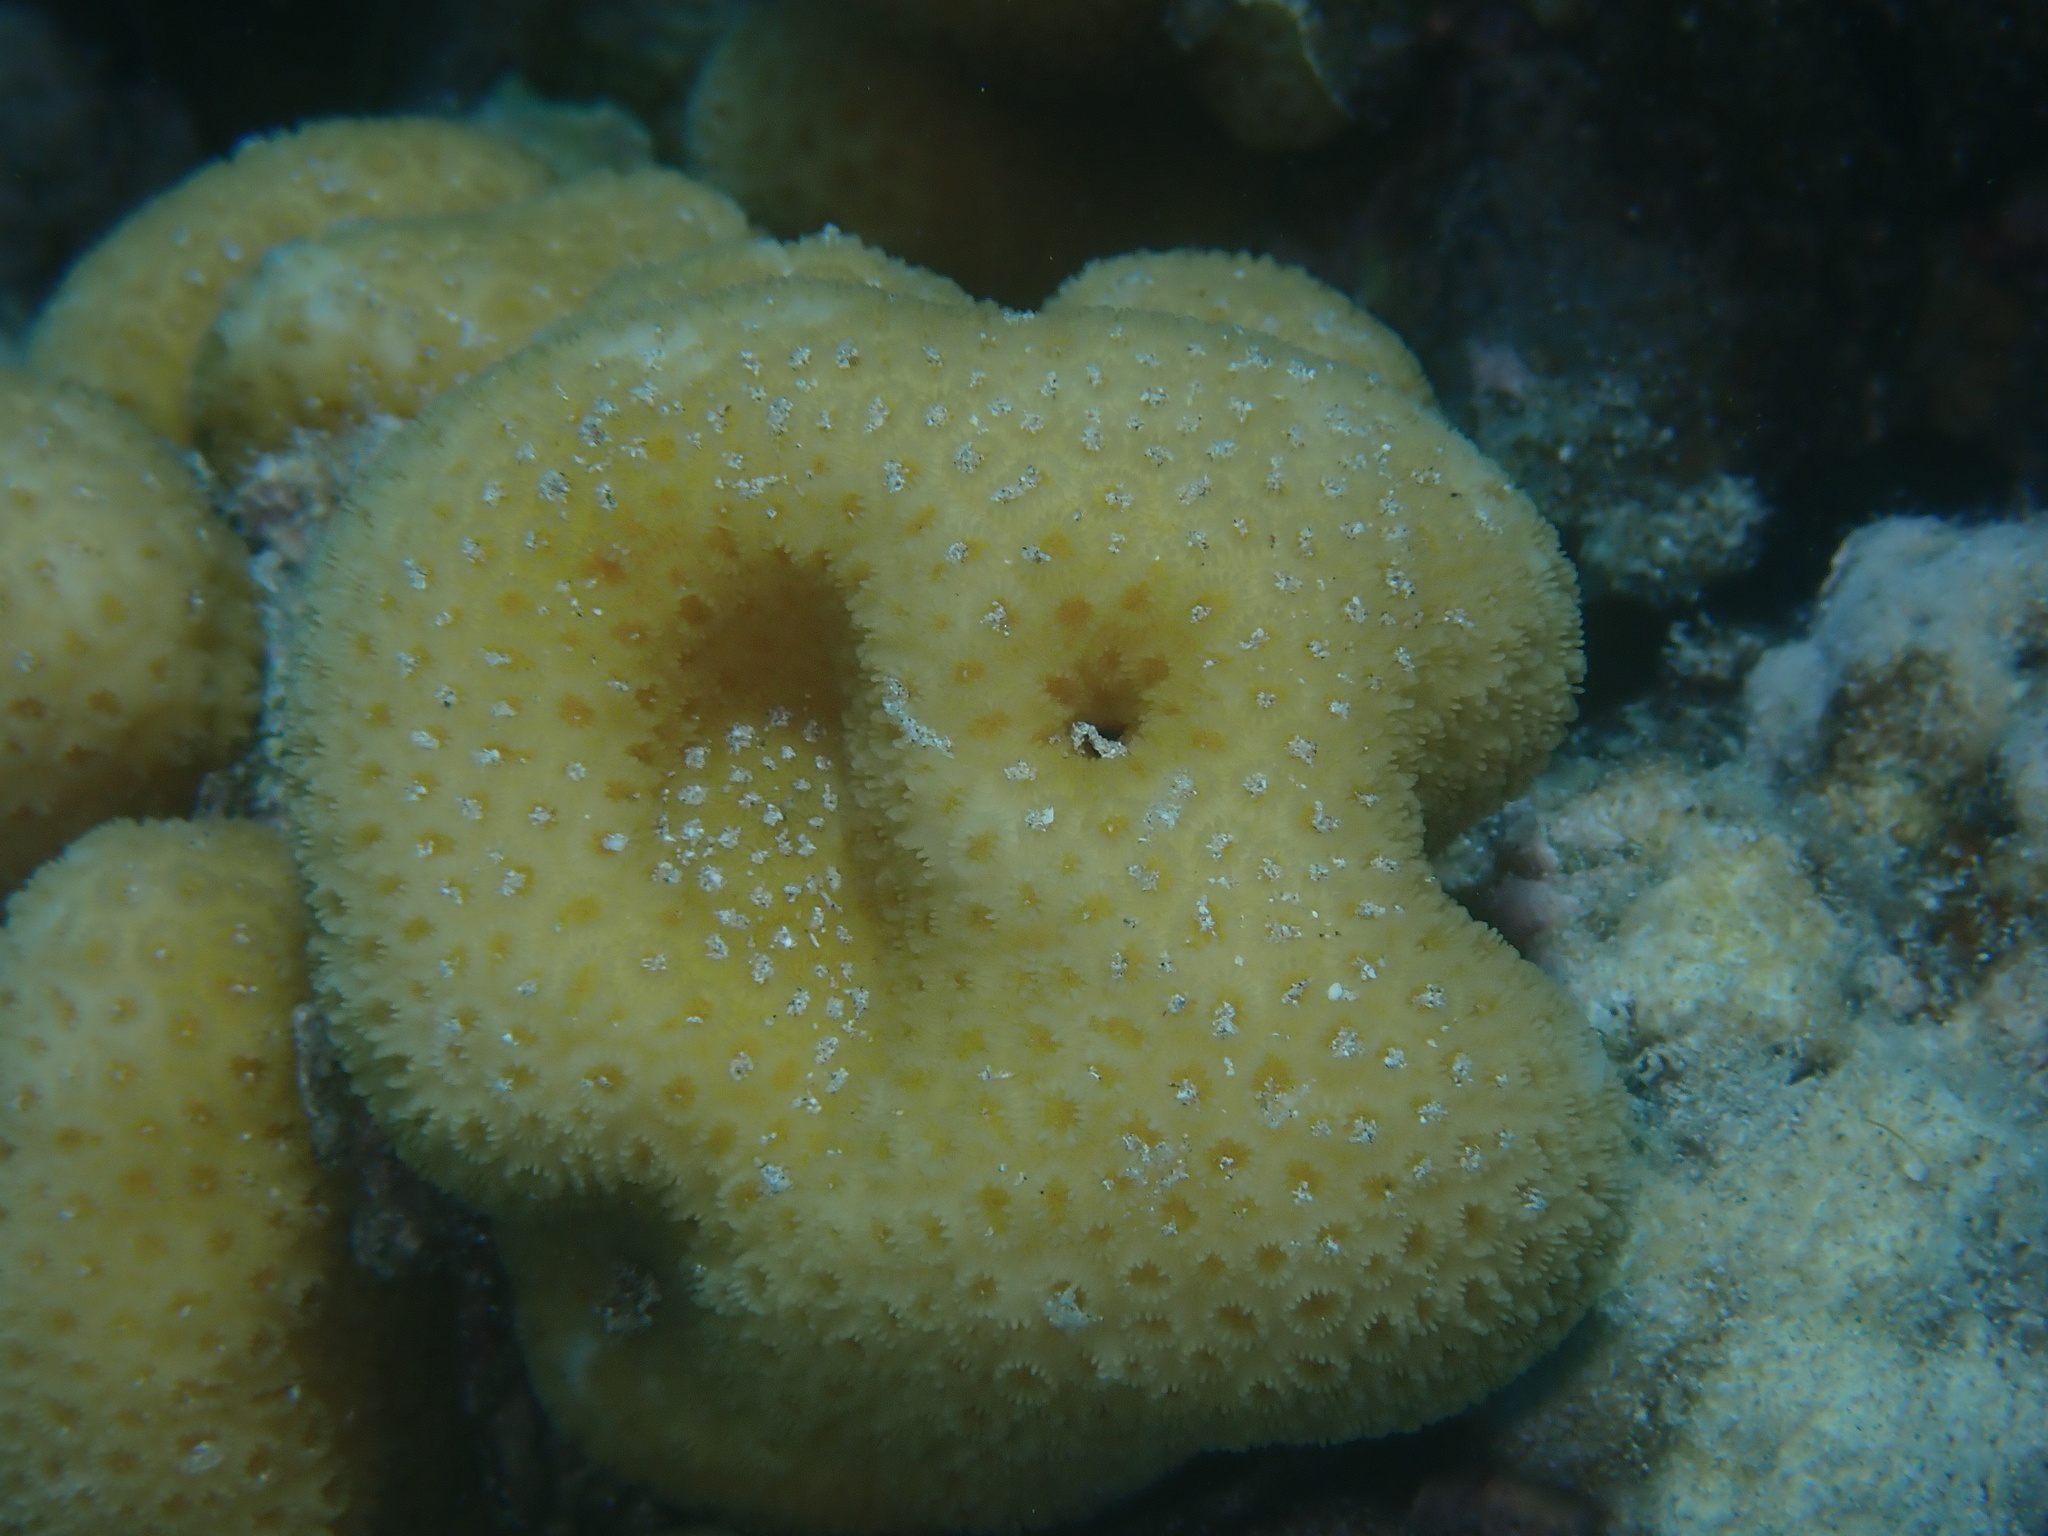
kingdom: Animalia
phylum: Cnidaria
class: Anthozoa
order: Scleractinia
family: Merulinidae
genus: Goniastrea
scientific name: Goniastrea stelligera
